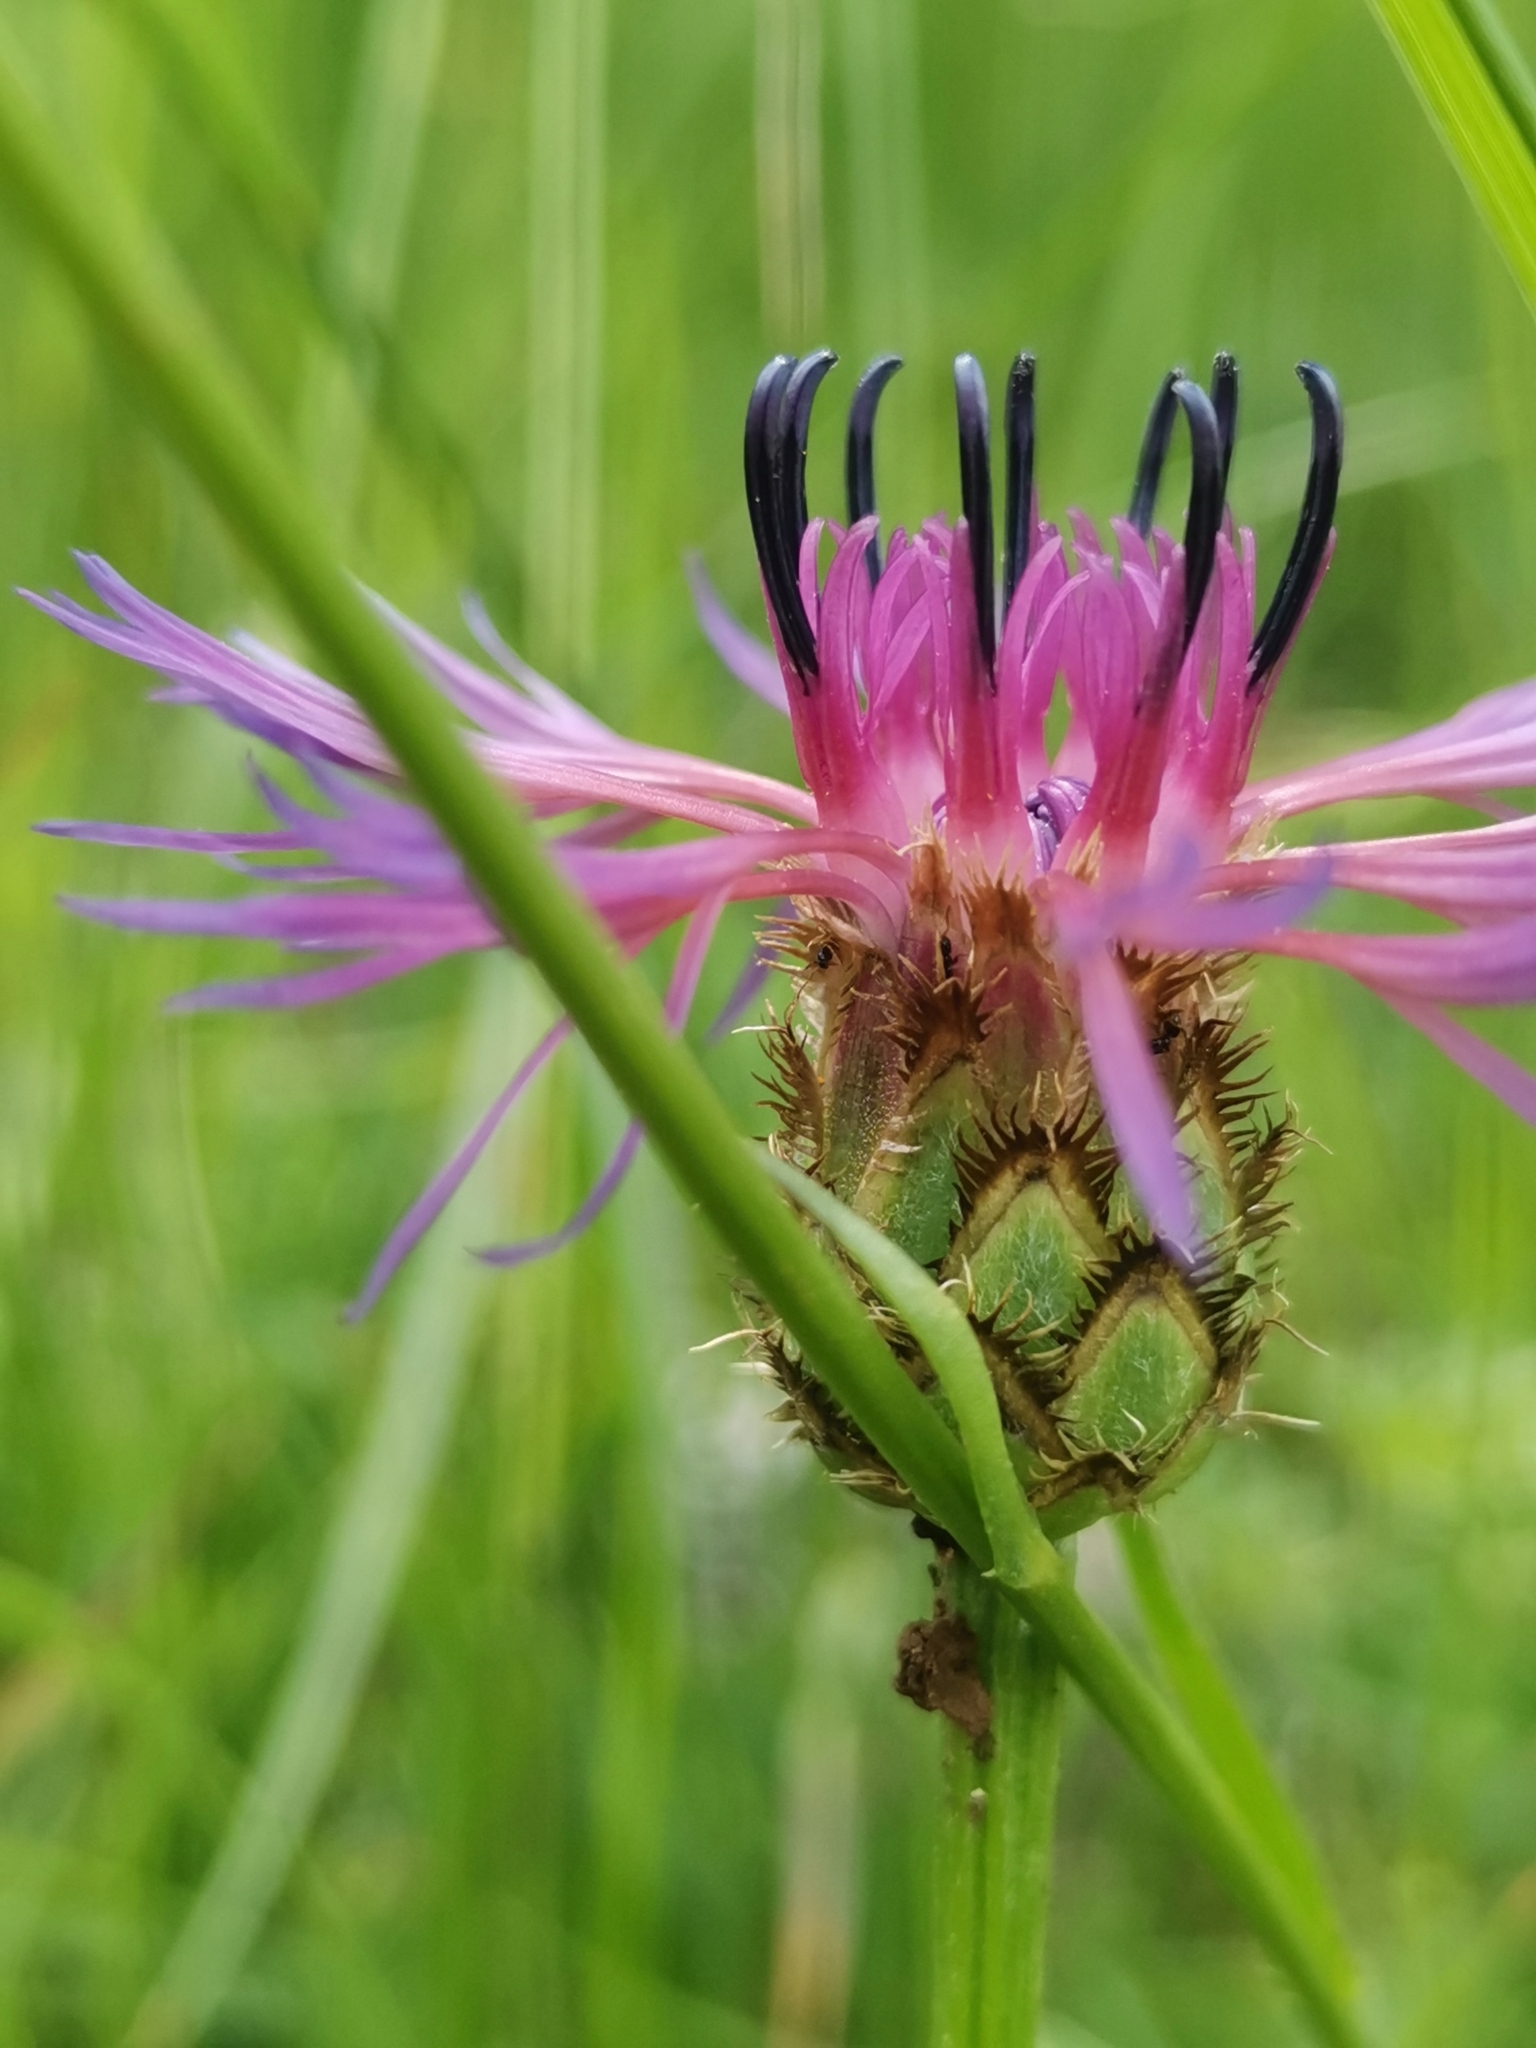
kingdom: Plantae
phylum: Tracheophyta
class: Magnoliopsida
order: Asterales
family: Asteraceae
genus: Centaurea
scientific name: Centaurea triumfettii
